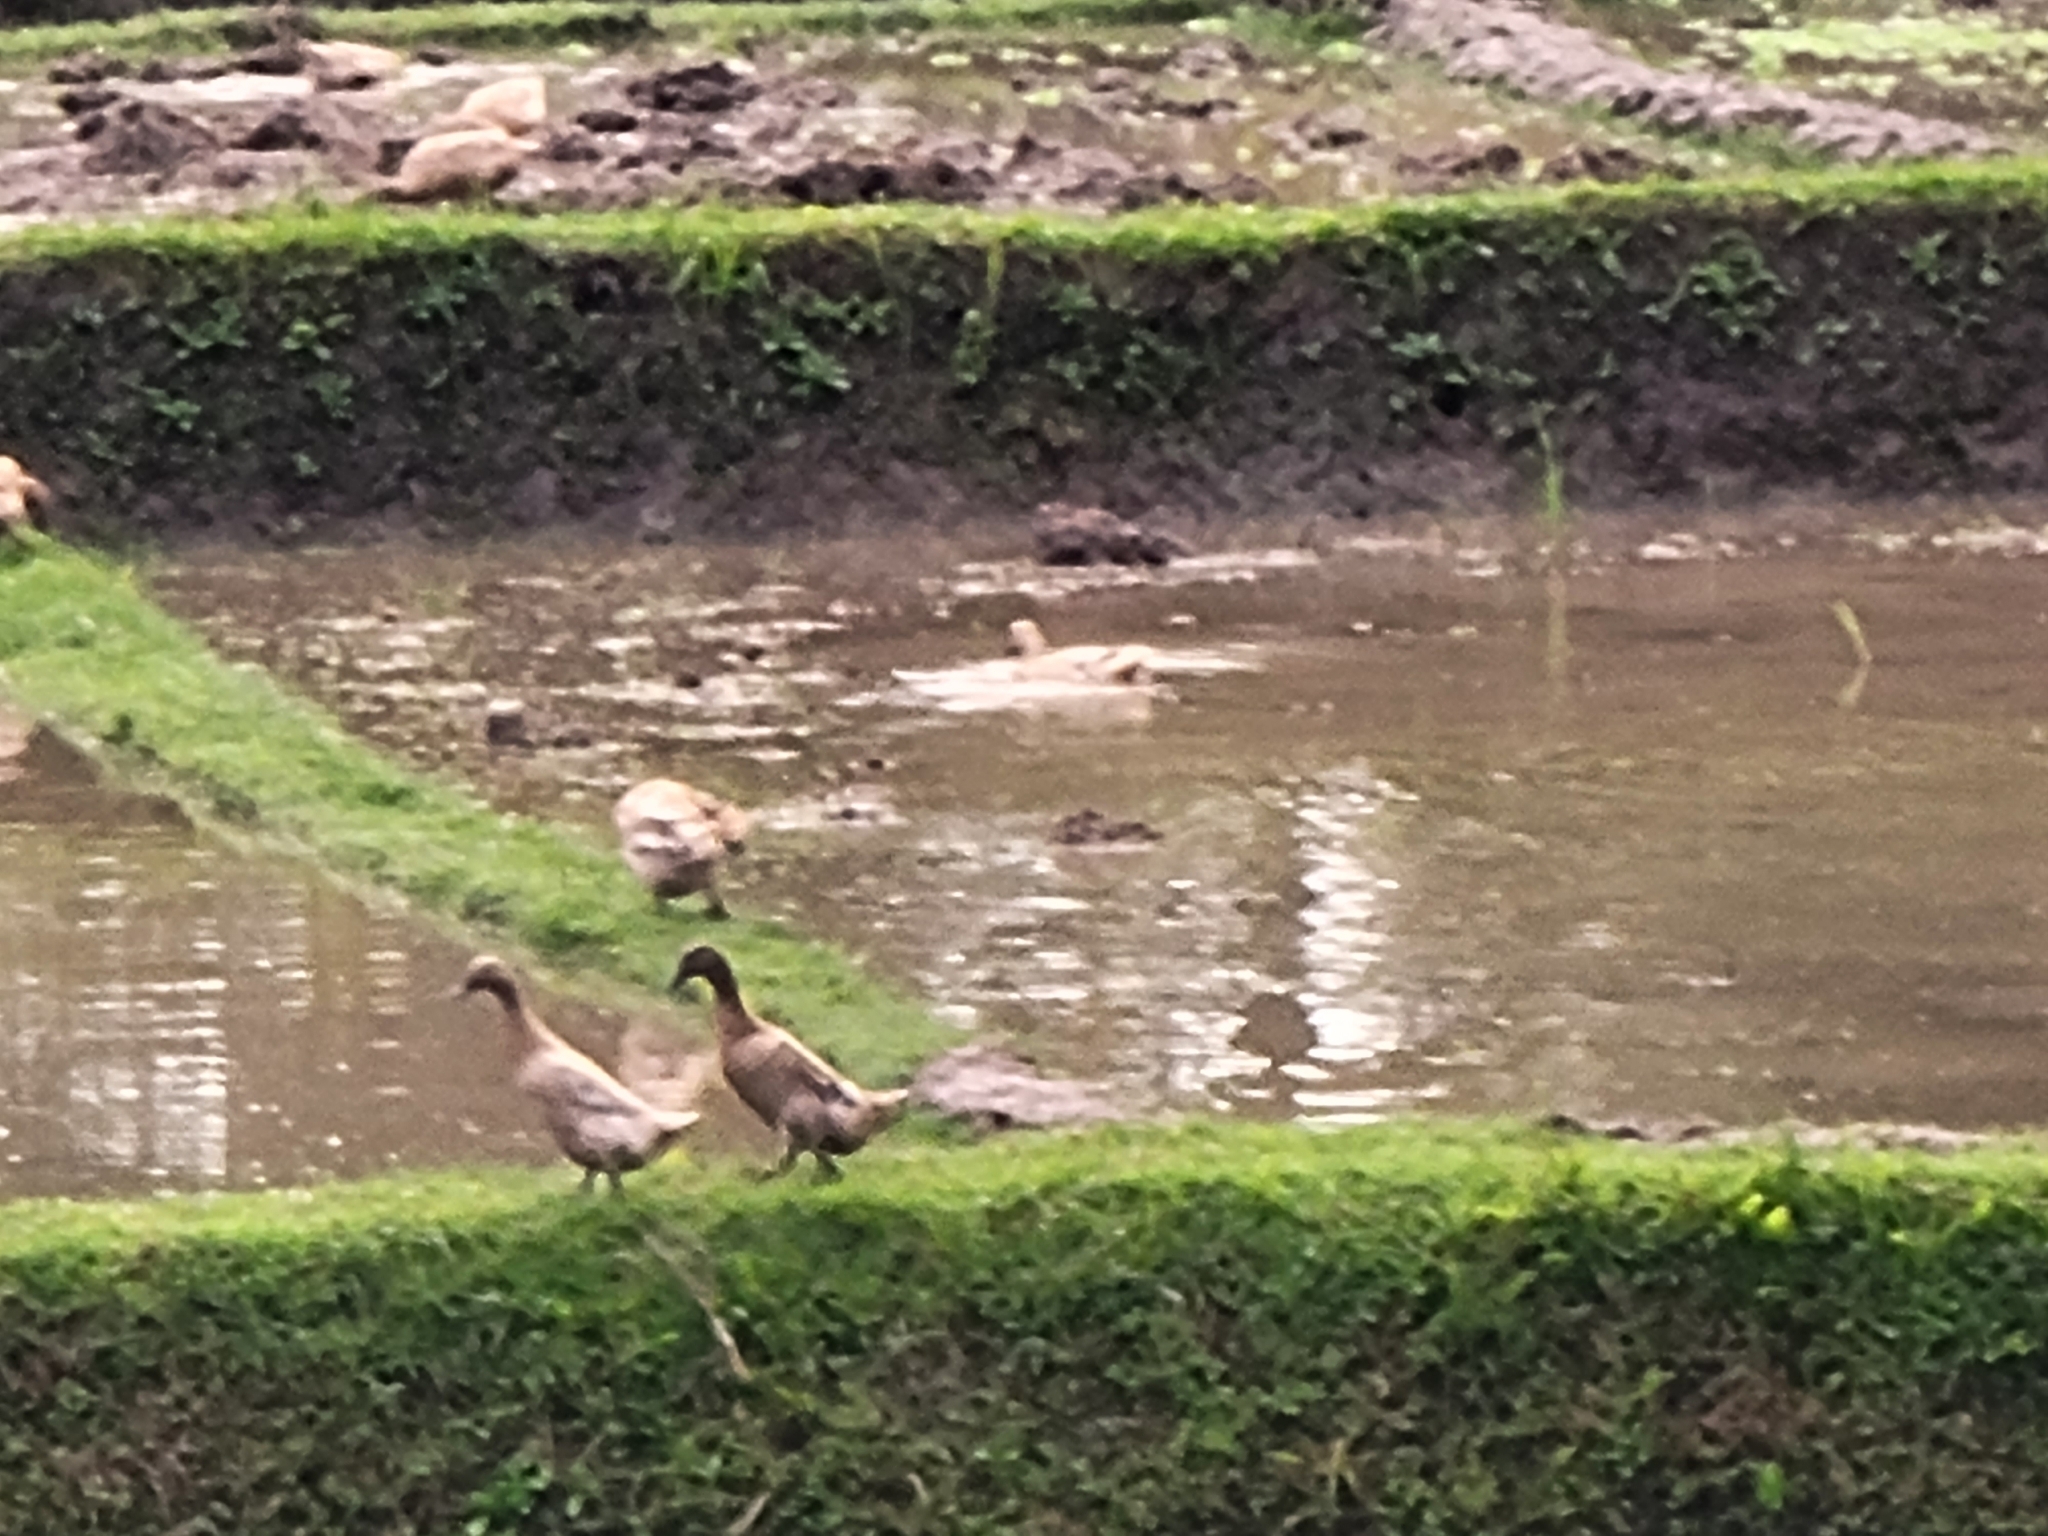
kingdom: Animalia
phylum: Chordata
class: Aves
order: Anseriformes
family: Anatidae
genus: Anas
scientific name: Anas platyrhynchos
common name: Mallard
